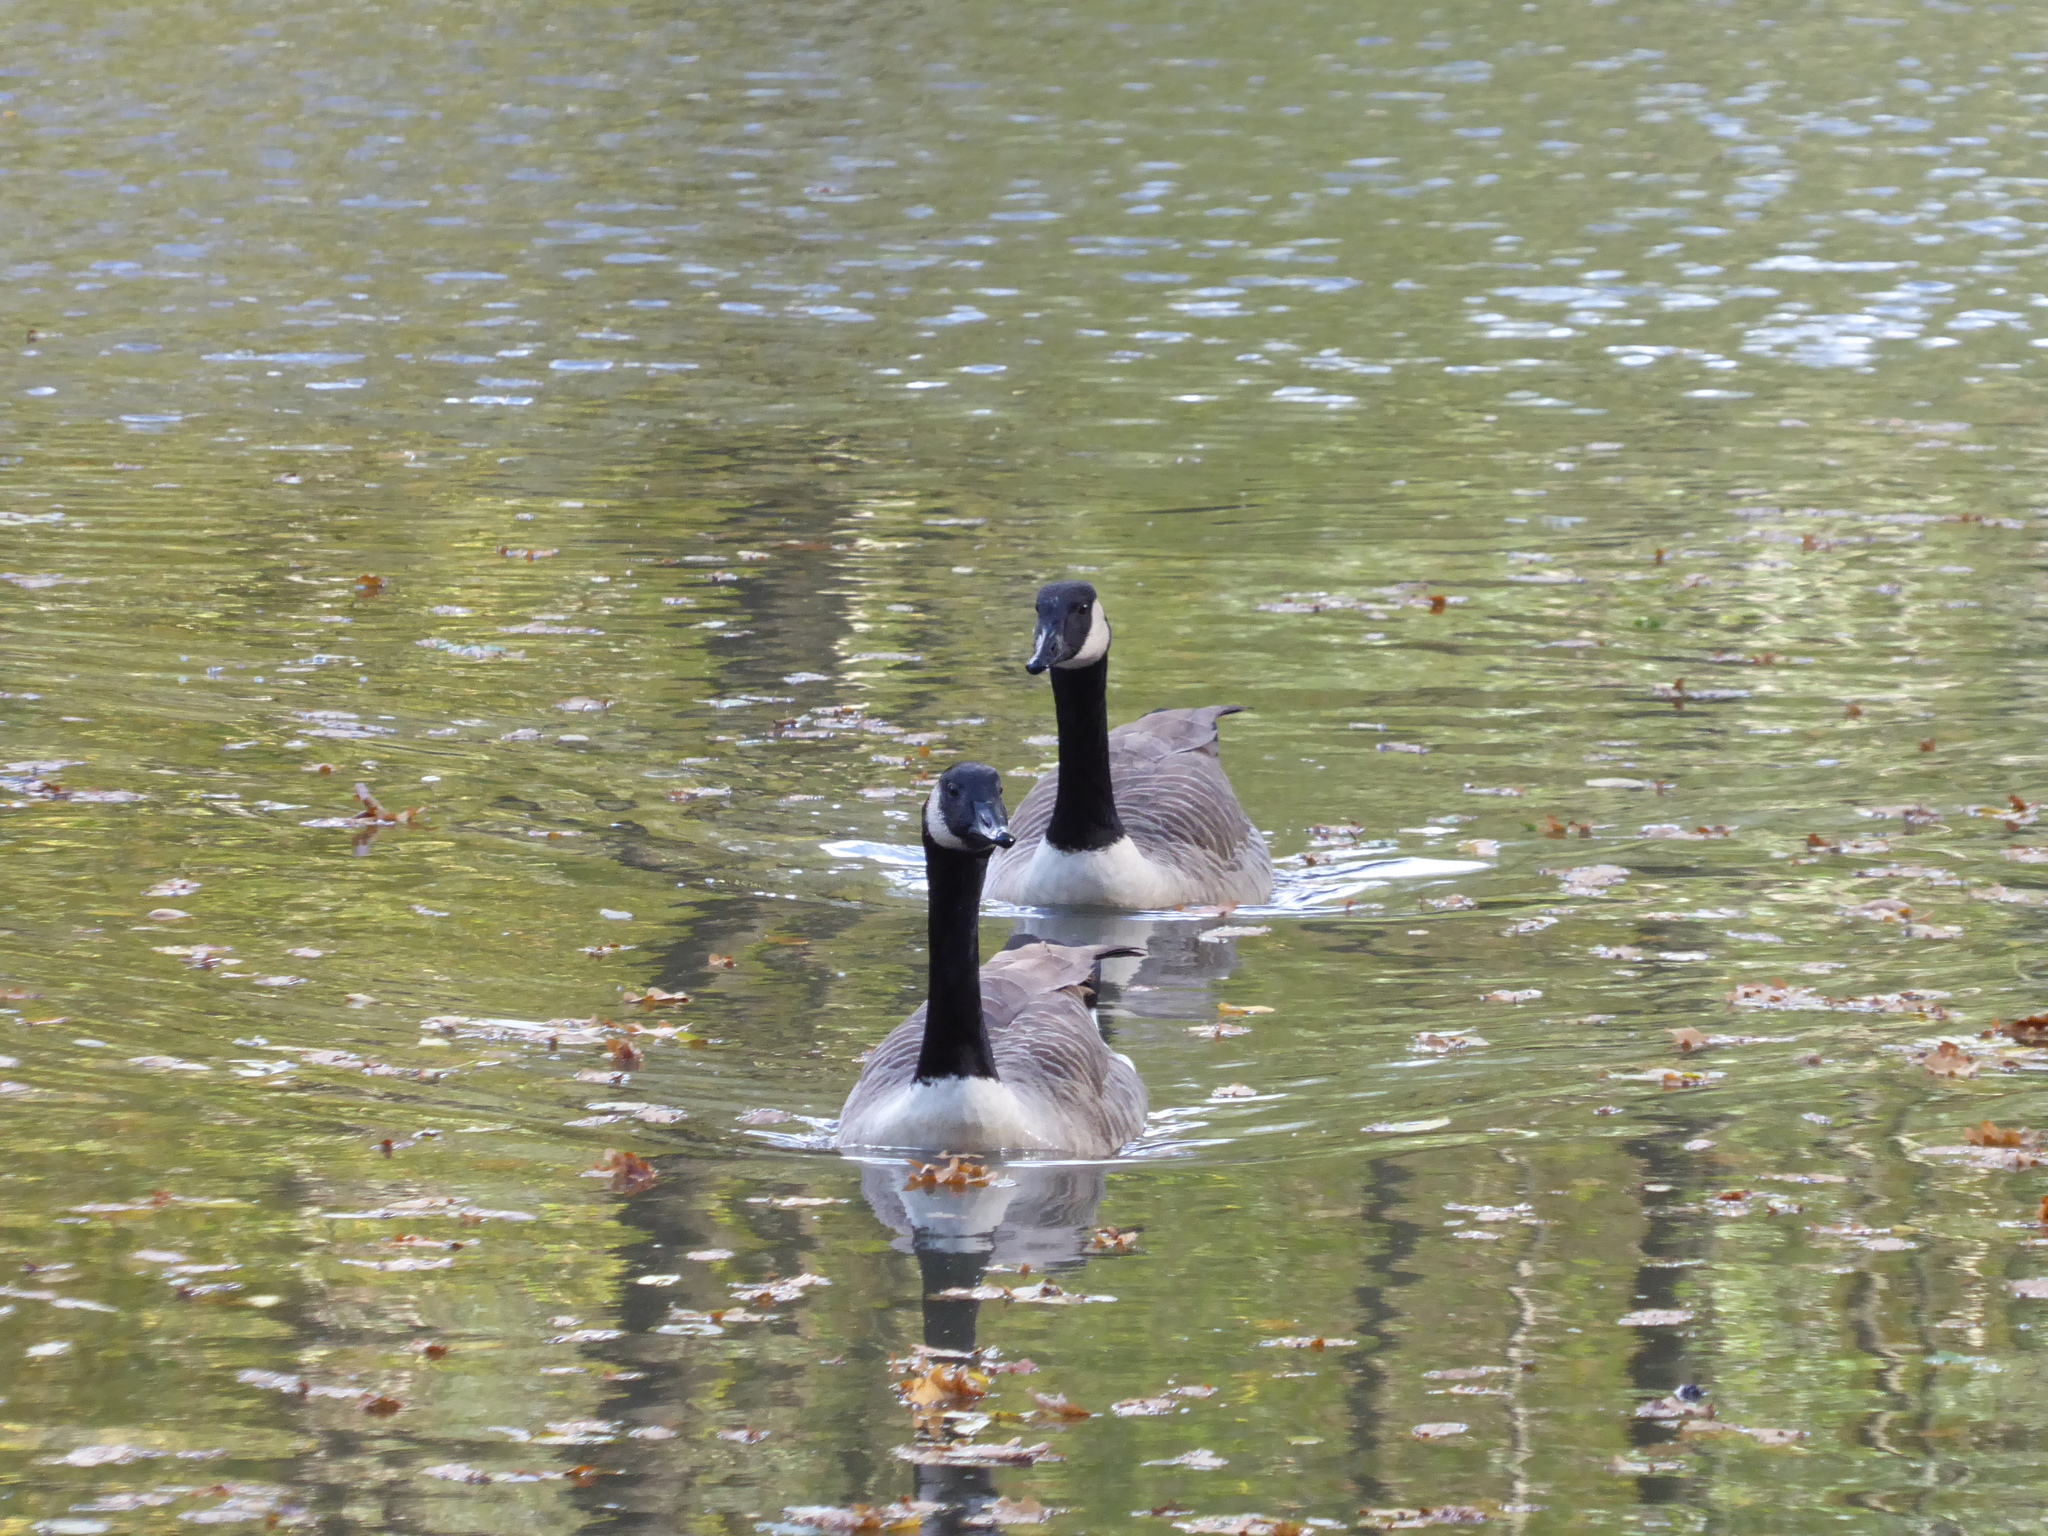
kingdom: Animalia
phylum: Chordata
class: Aves
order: Anseriformes
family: Anatidae
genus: Branta
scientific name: Branta canadensis
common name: Canada goose
